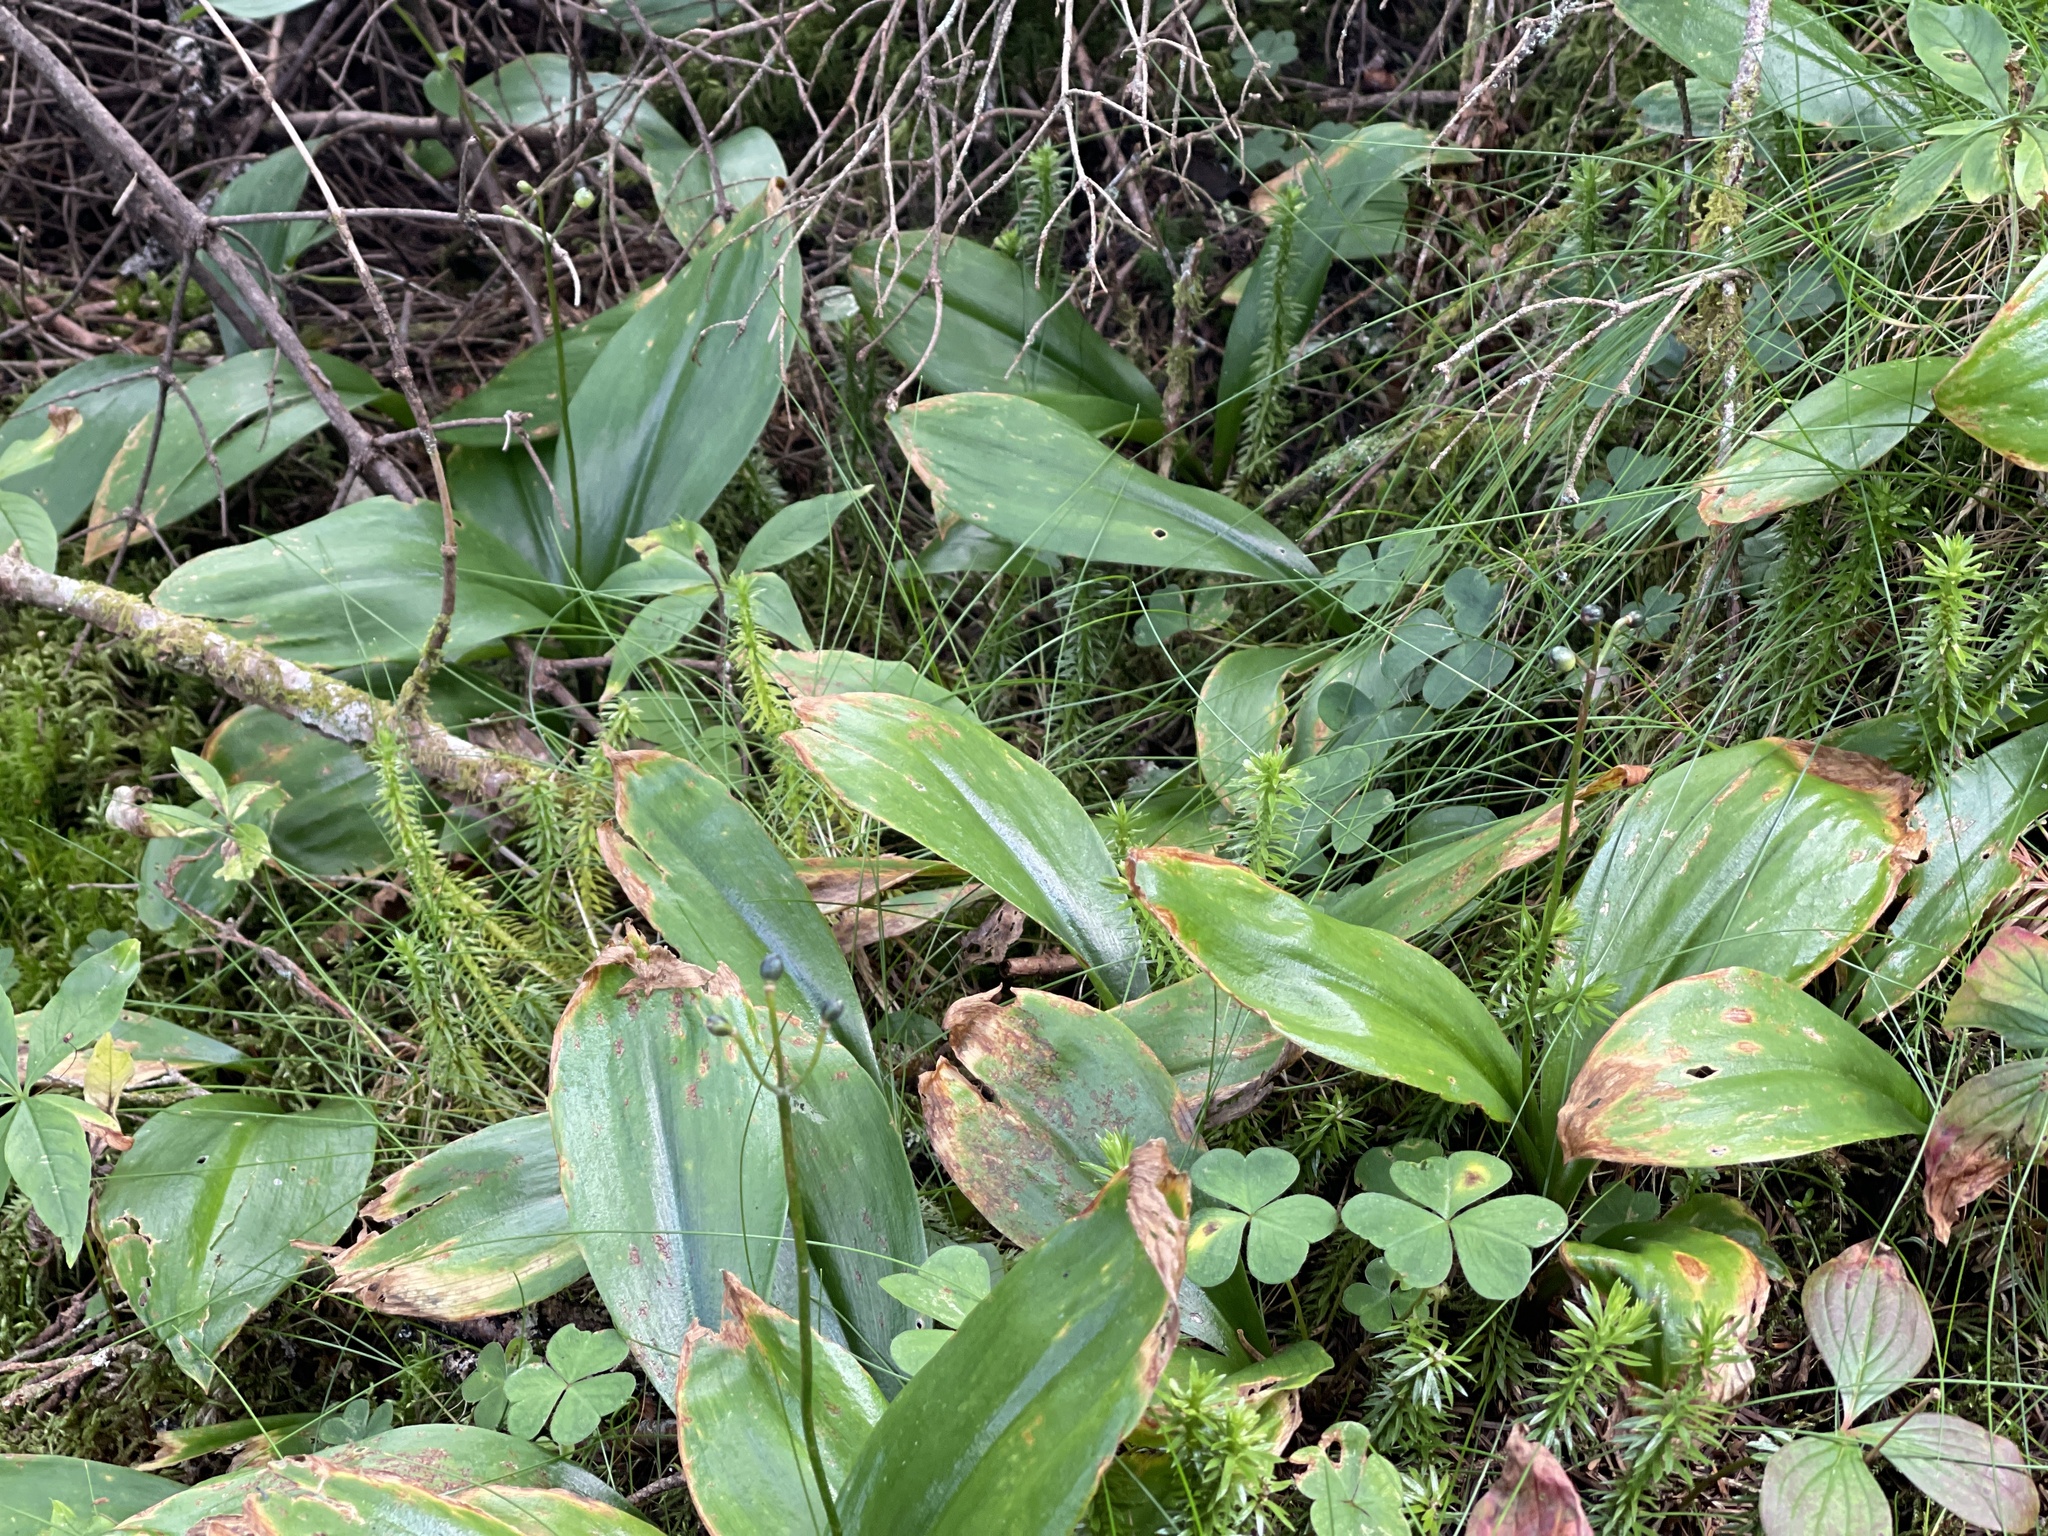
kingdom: Plantae
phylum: Tracheophyta
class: Liliopsida
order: Liliales
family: Liliaceae
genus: Clintonia
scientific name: Clintonia borealis
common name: Yellow clintonia
